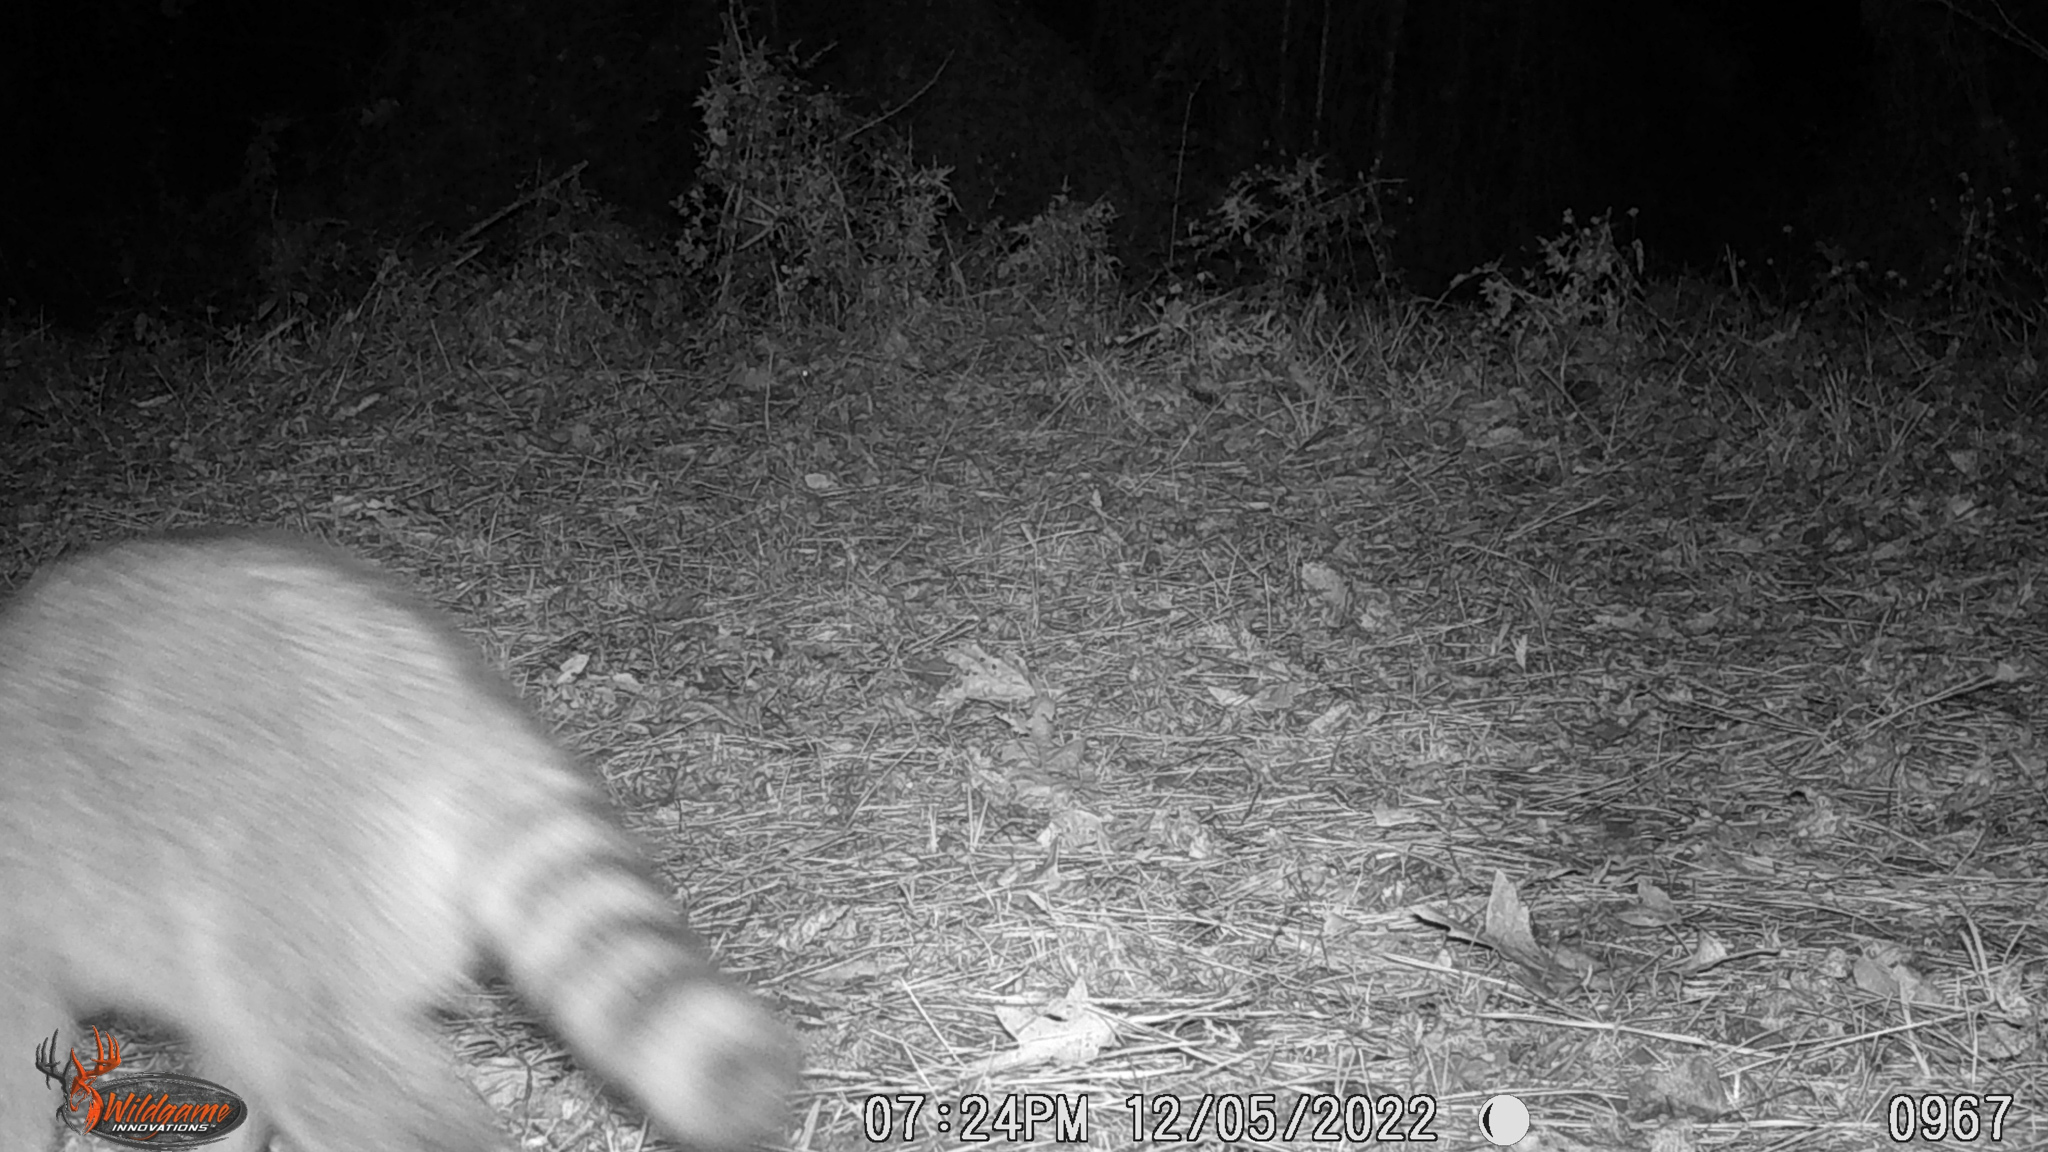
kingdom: Animalia
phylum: Chordata
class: Mammalia
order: Carnivora
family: Procyonidae
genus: Procyon
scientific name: Procyon lotor
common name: Raccoon
